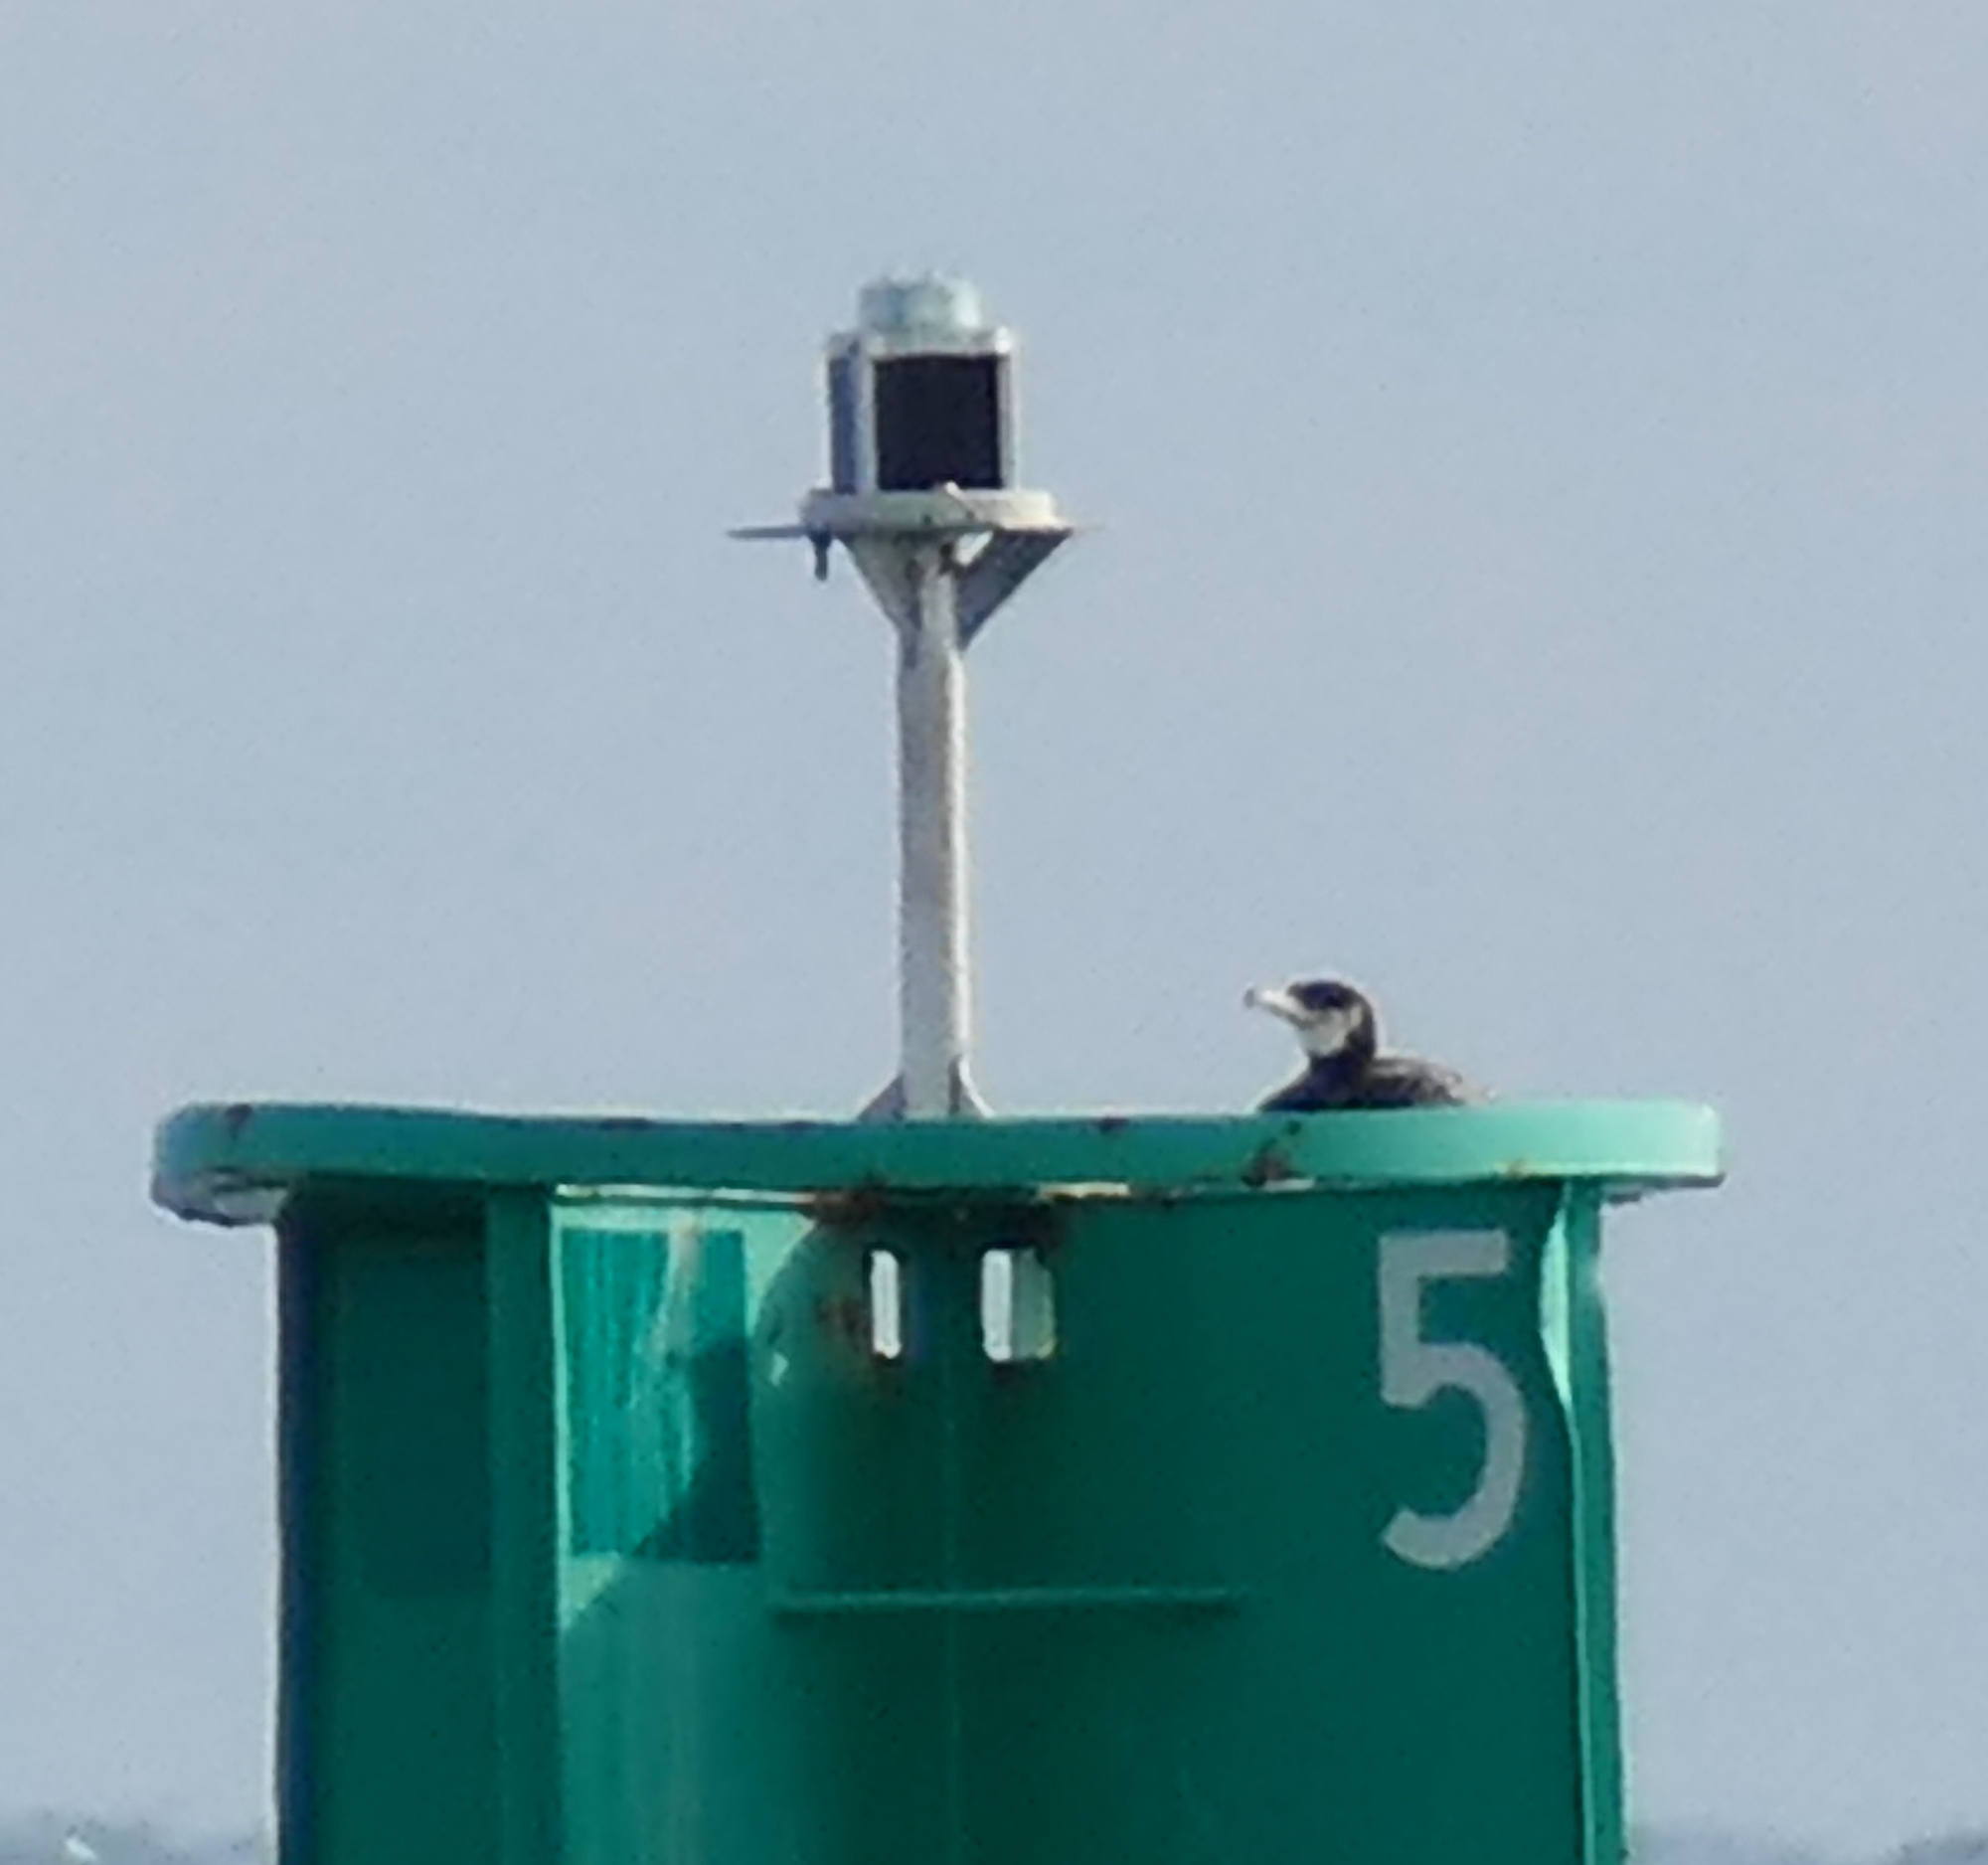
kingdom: Animalia
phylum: Chordata
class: Aves
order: Suliformes
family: Phalacrocoracidae
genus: Phalacrocorax
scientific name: Phalacrocorax carbo
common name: Great cormorant
